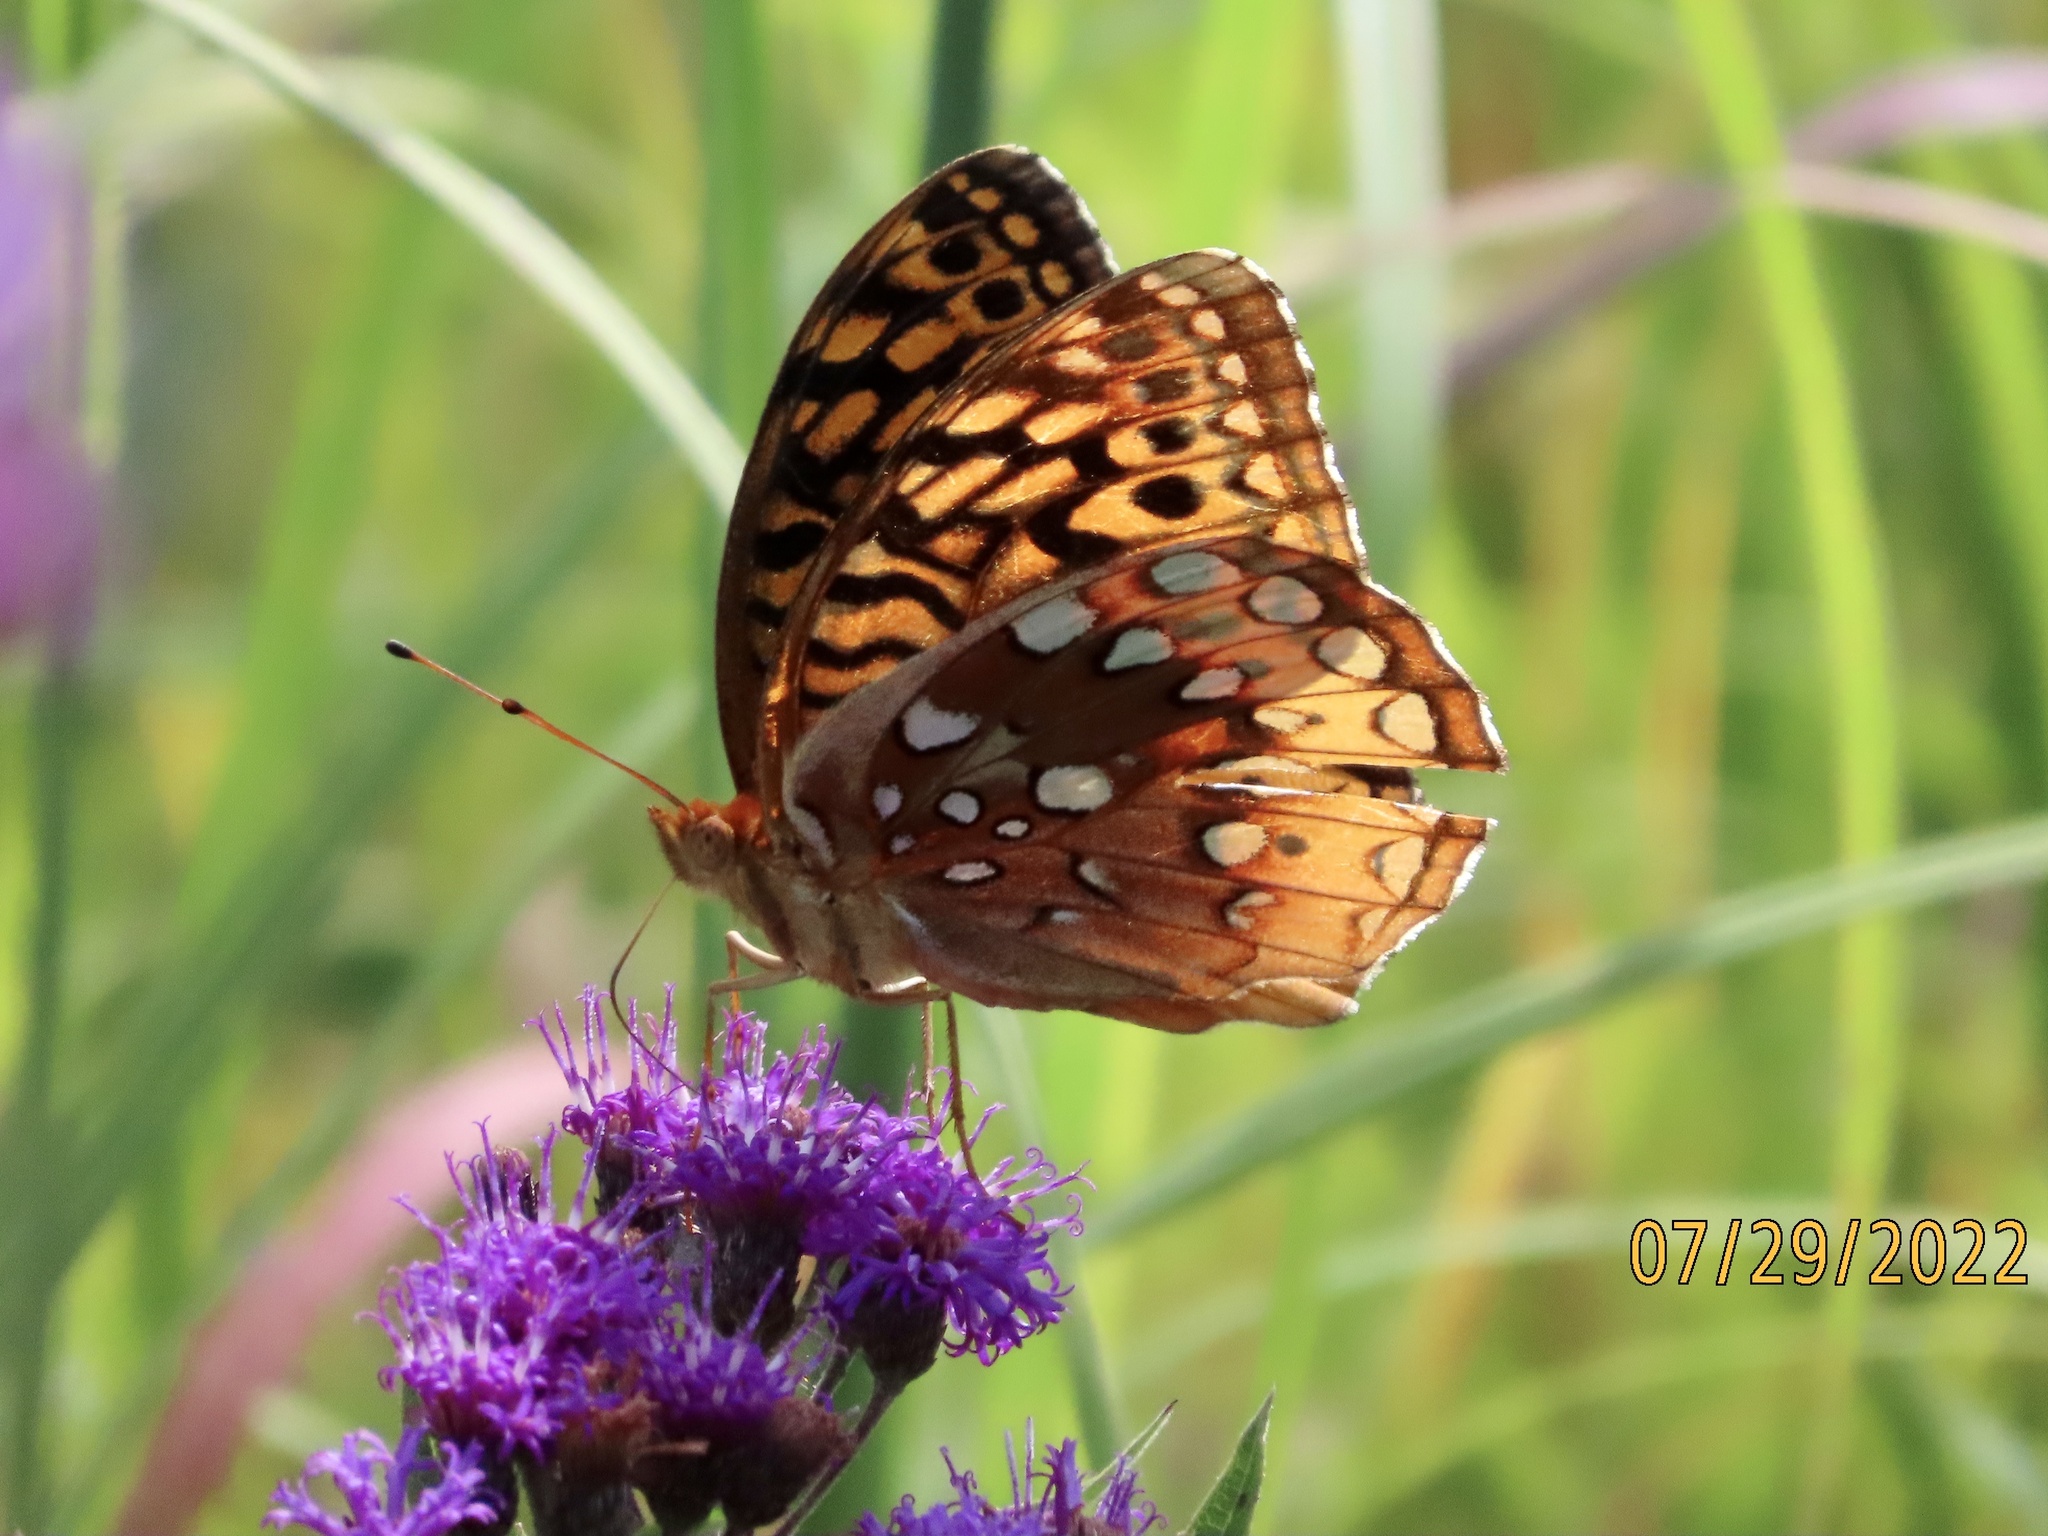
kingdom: Animalia
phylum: Arthropoda
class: Insecta
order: Lepidoptera
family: Nymphalidae
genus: Speyeria
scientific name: Speyeria cybele
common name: Great spangled fritillary
